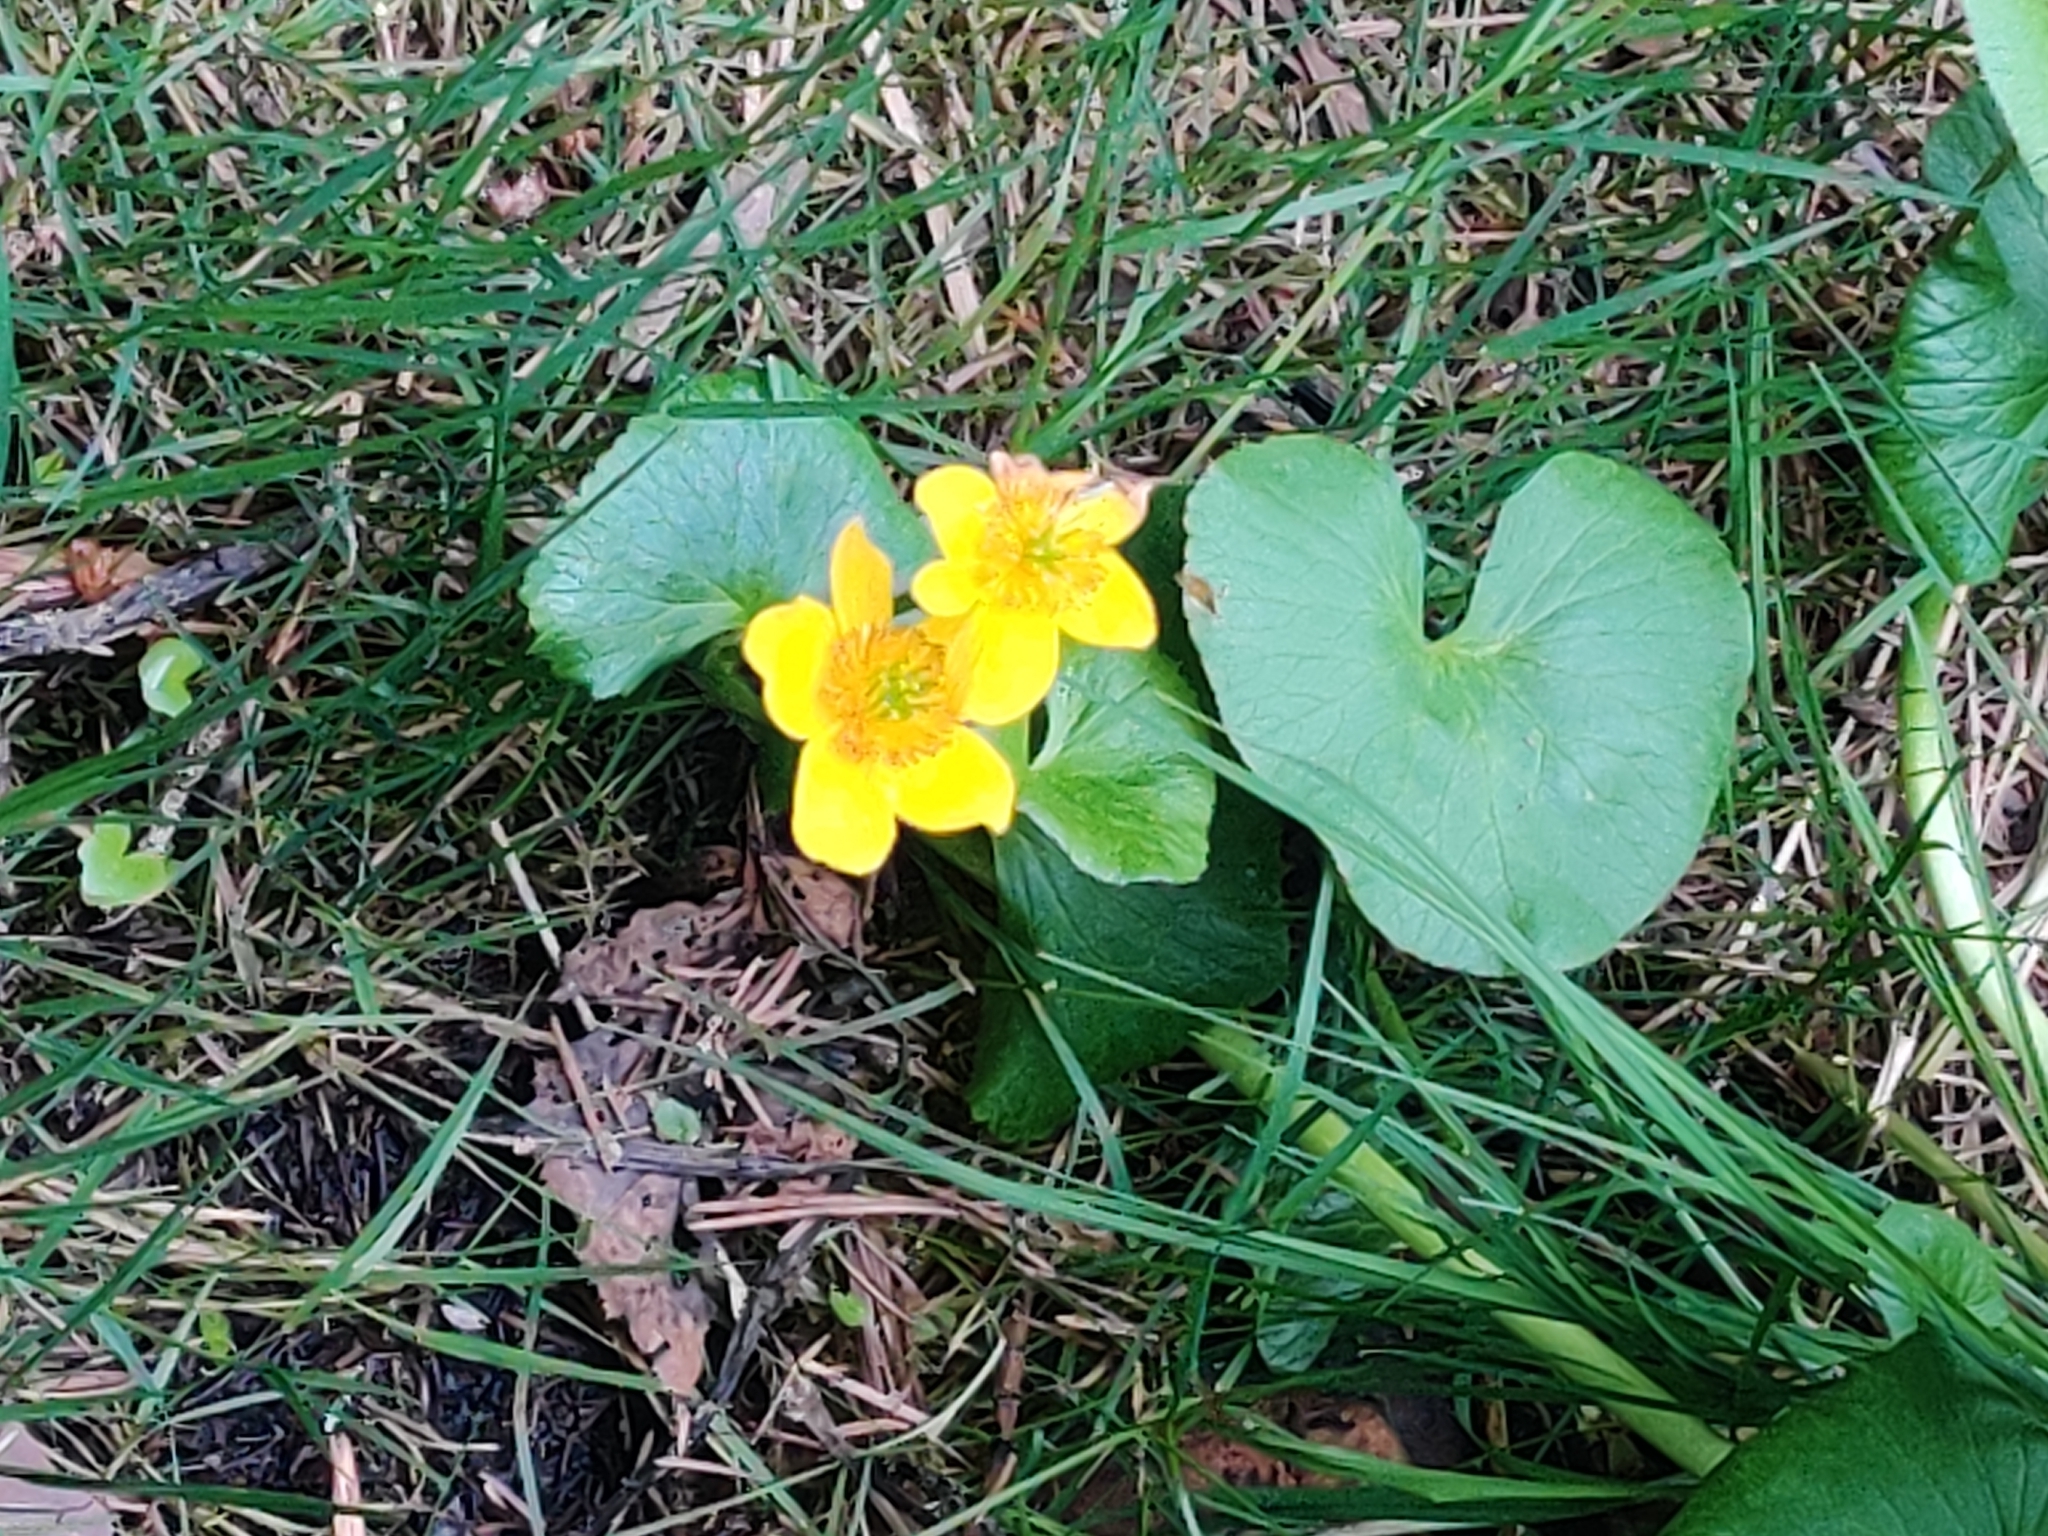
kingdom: Plantae
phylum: Tracheophyta
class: Magnoliopsida
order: Ranunculales
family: Ranunculaceae
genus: Caltha
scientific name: Caltha palustris
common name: Marsh marigold
